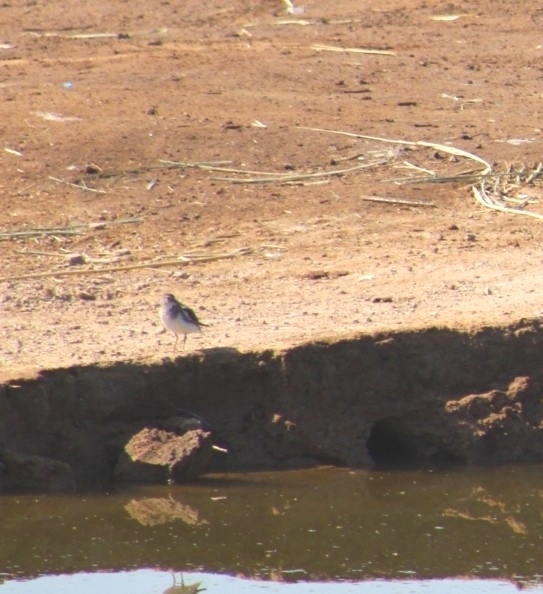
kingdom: Animalia
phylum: Chordata
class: Aves
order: Charadriiformes
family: Scolopacidae
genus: Actitis
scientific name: Actitis macularius
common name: Spotted sandpiper
